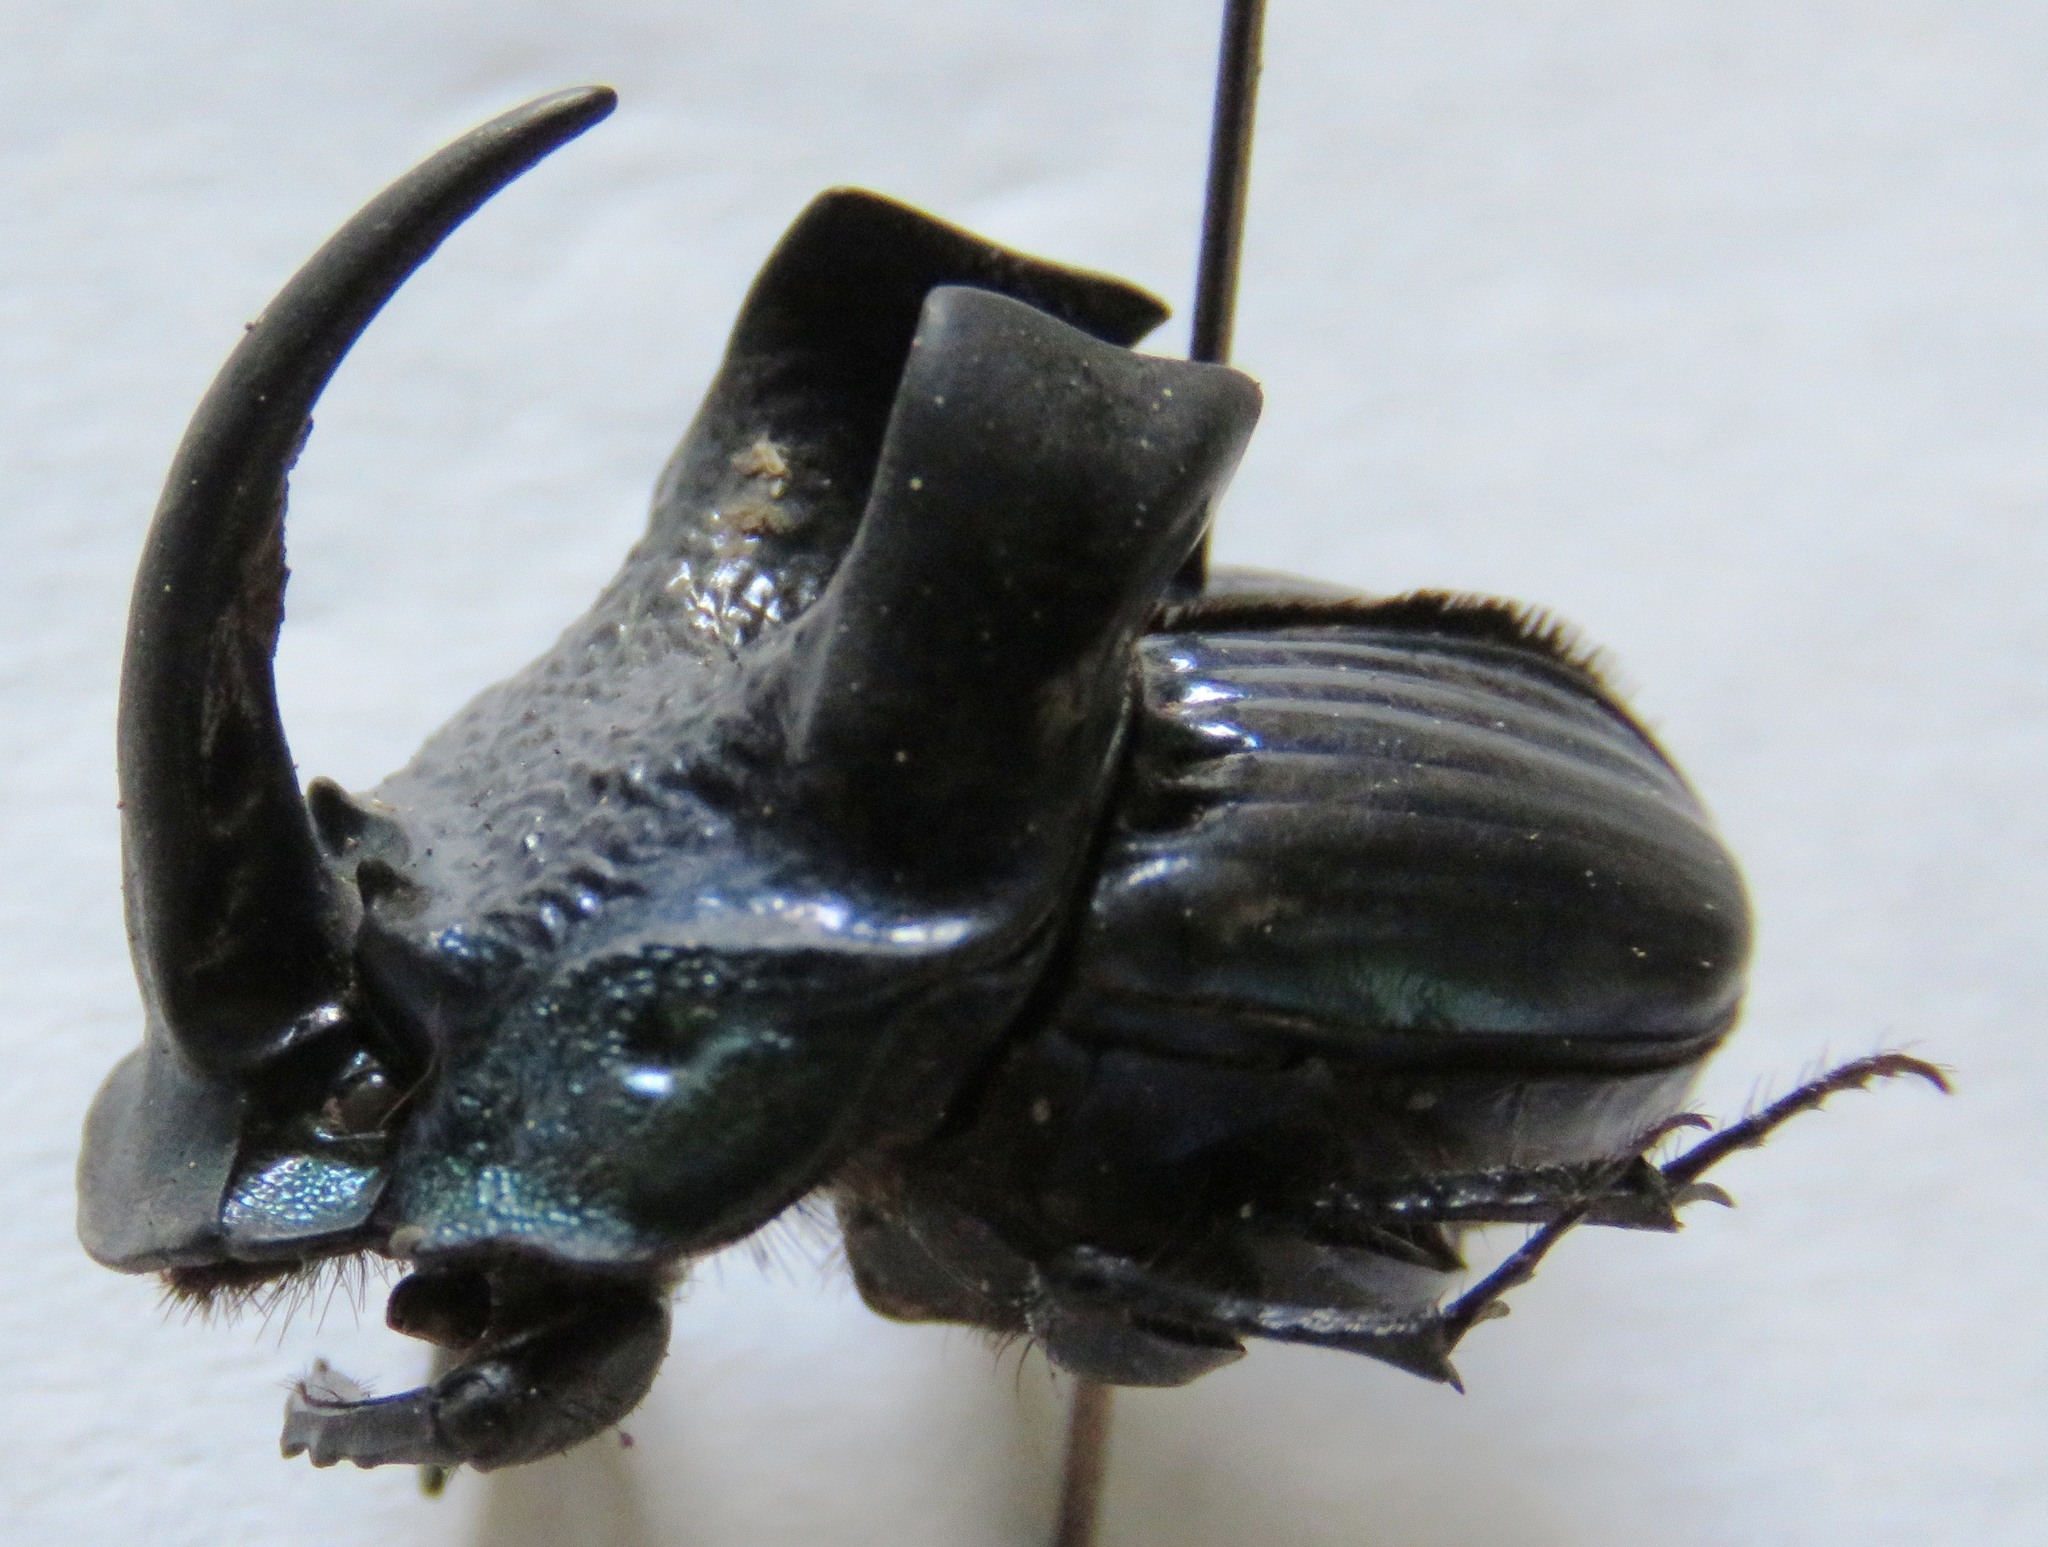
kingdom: Animalia
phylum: Arthropoda
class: Insecta
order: Coleoptera
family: Scarabaeidae
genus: Phanaeus
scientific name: Phanaeus excelsus
